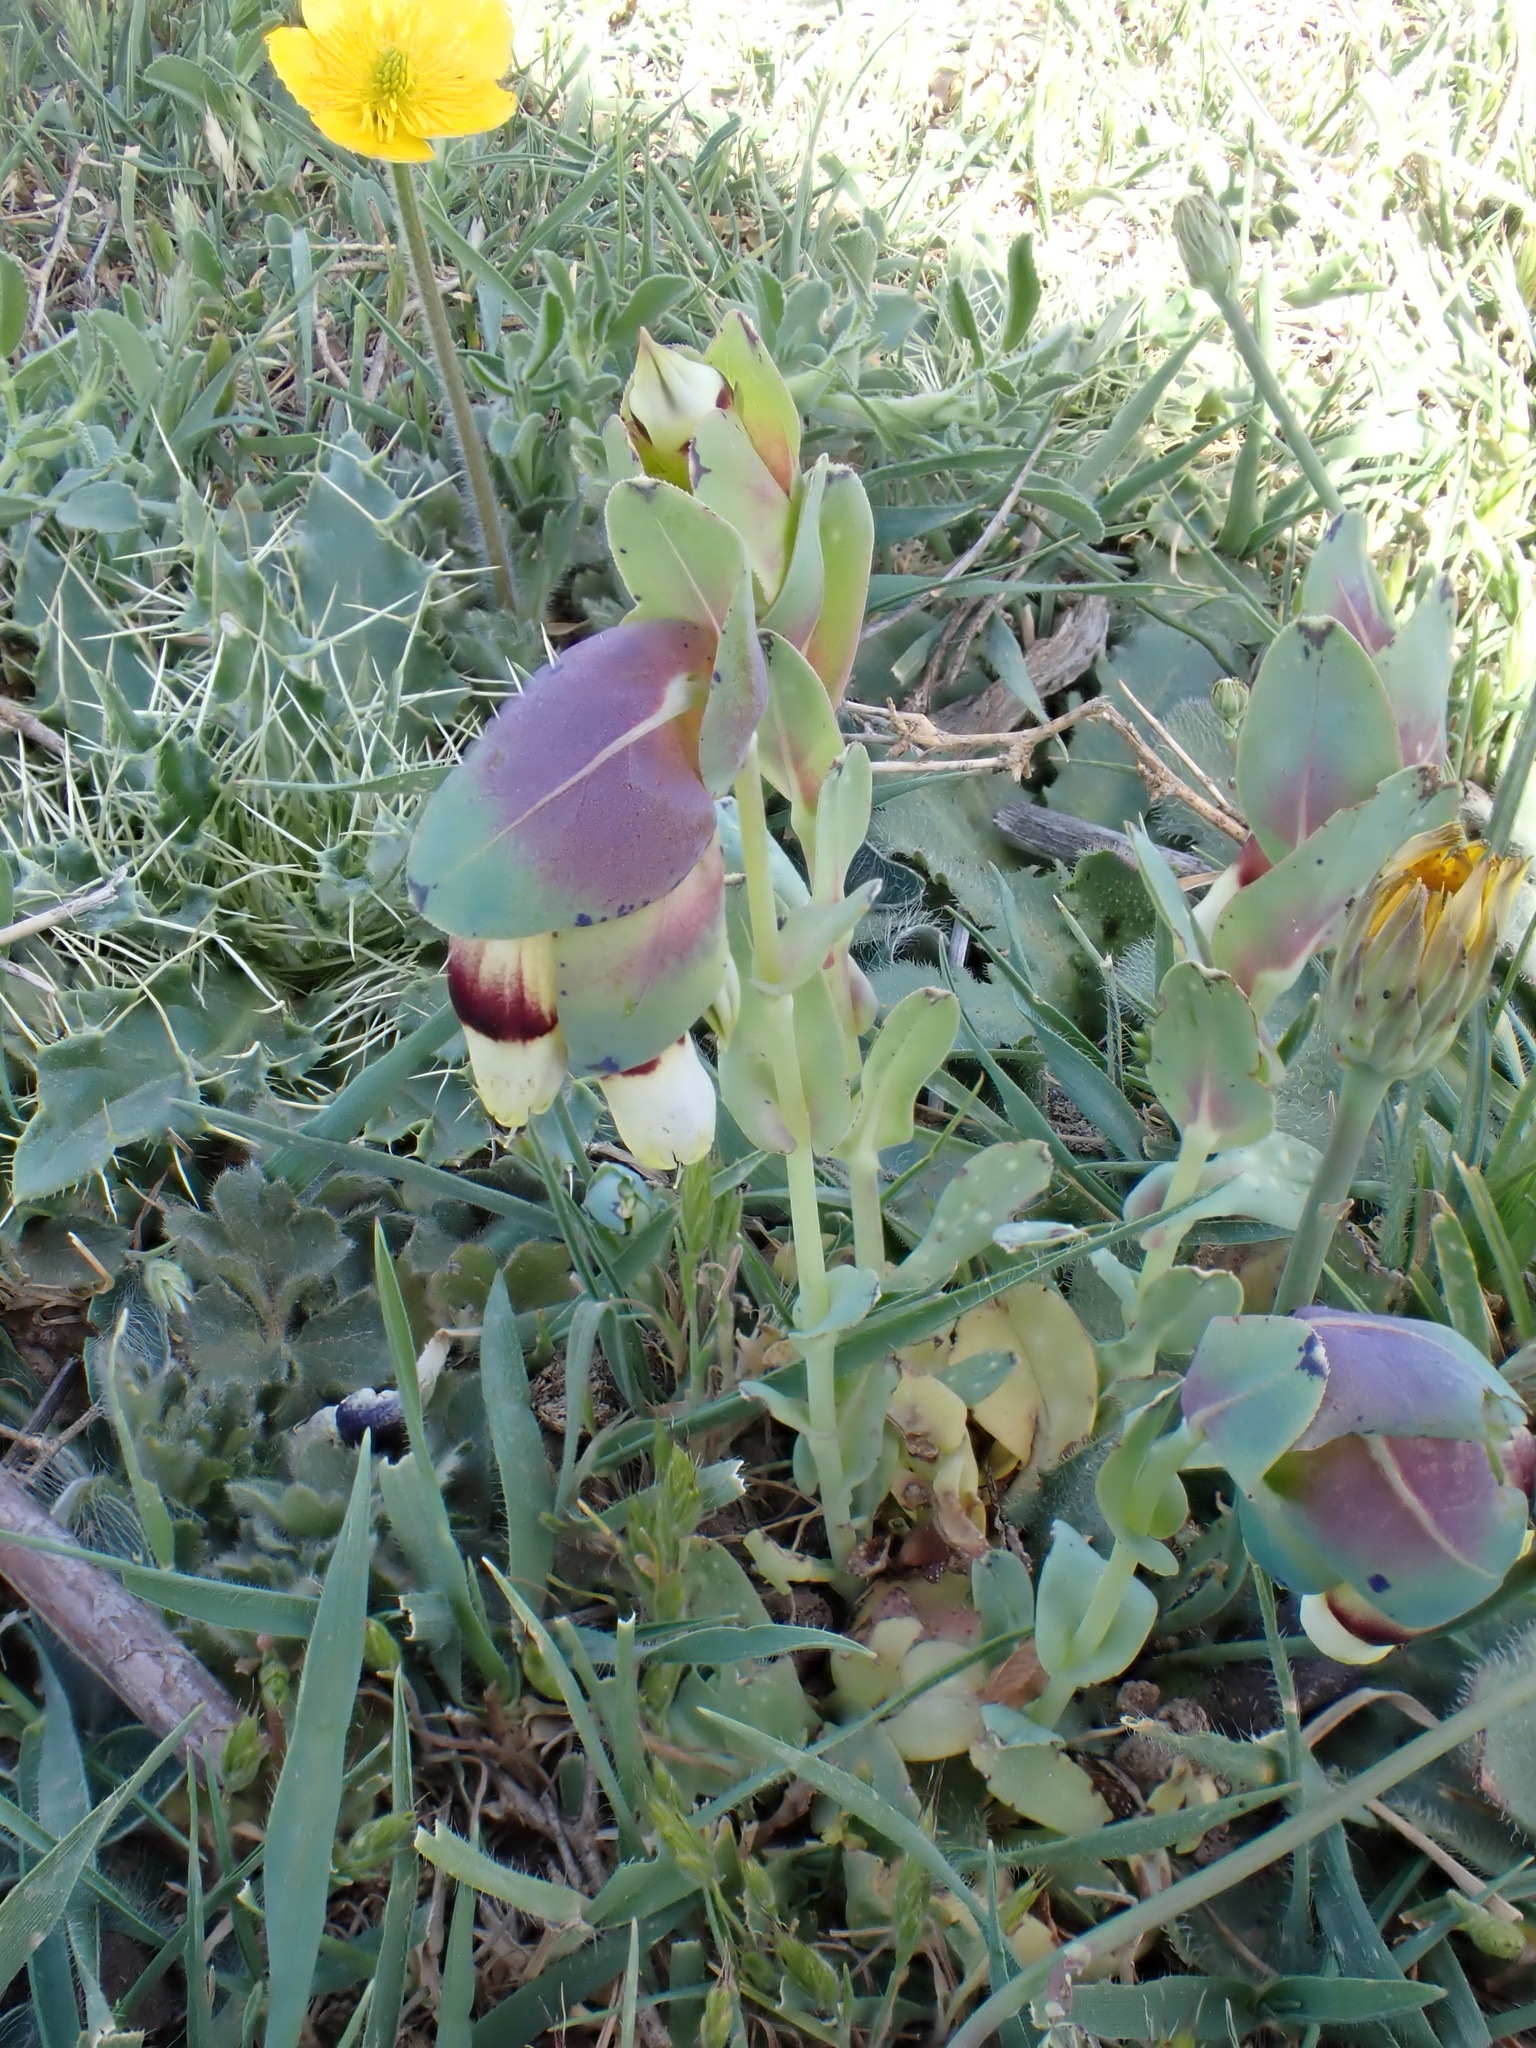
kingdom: Plantae
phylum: Tracheophyta
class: Magnoliopsida
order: Boraginales
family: Boraginaceae
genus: Cerinthe
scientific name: Cerinthe major
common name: Greater honeywort
